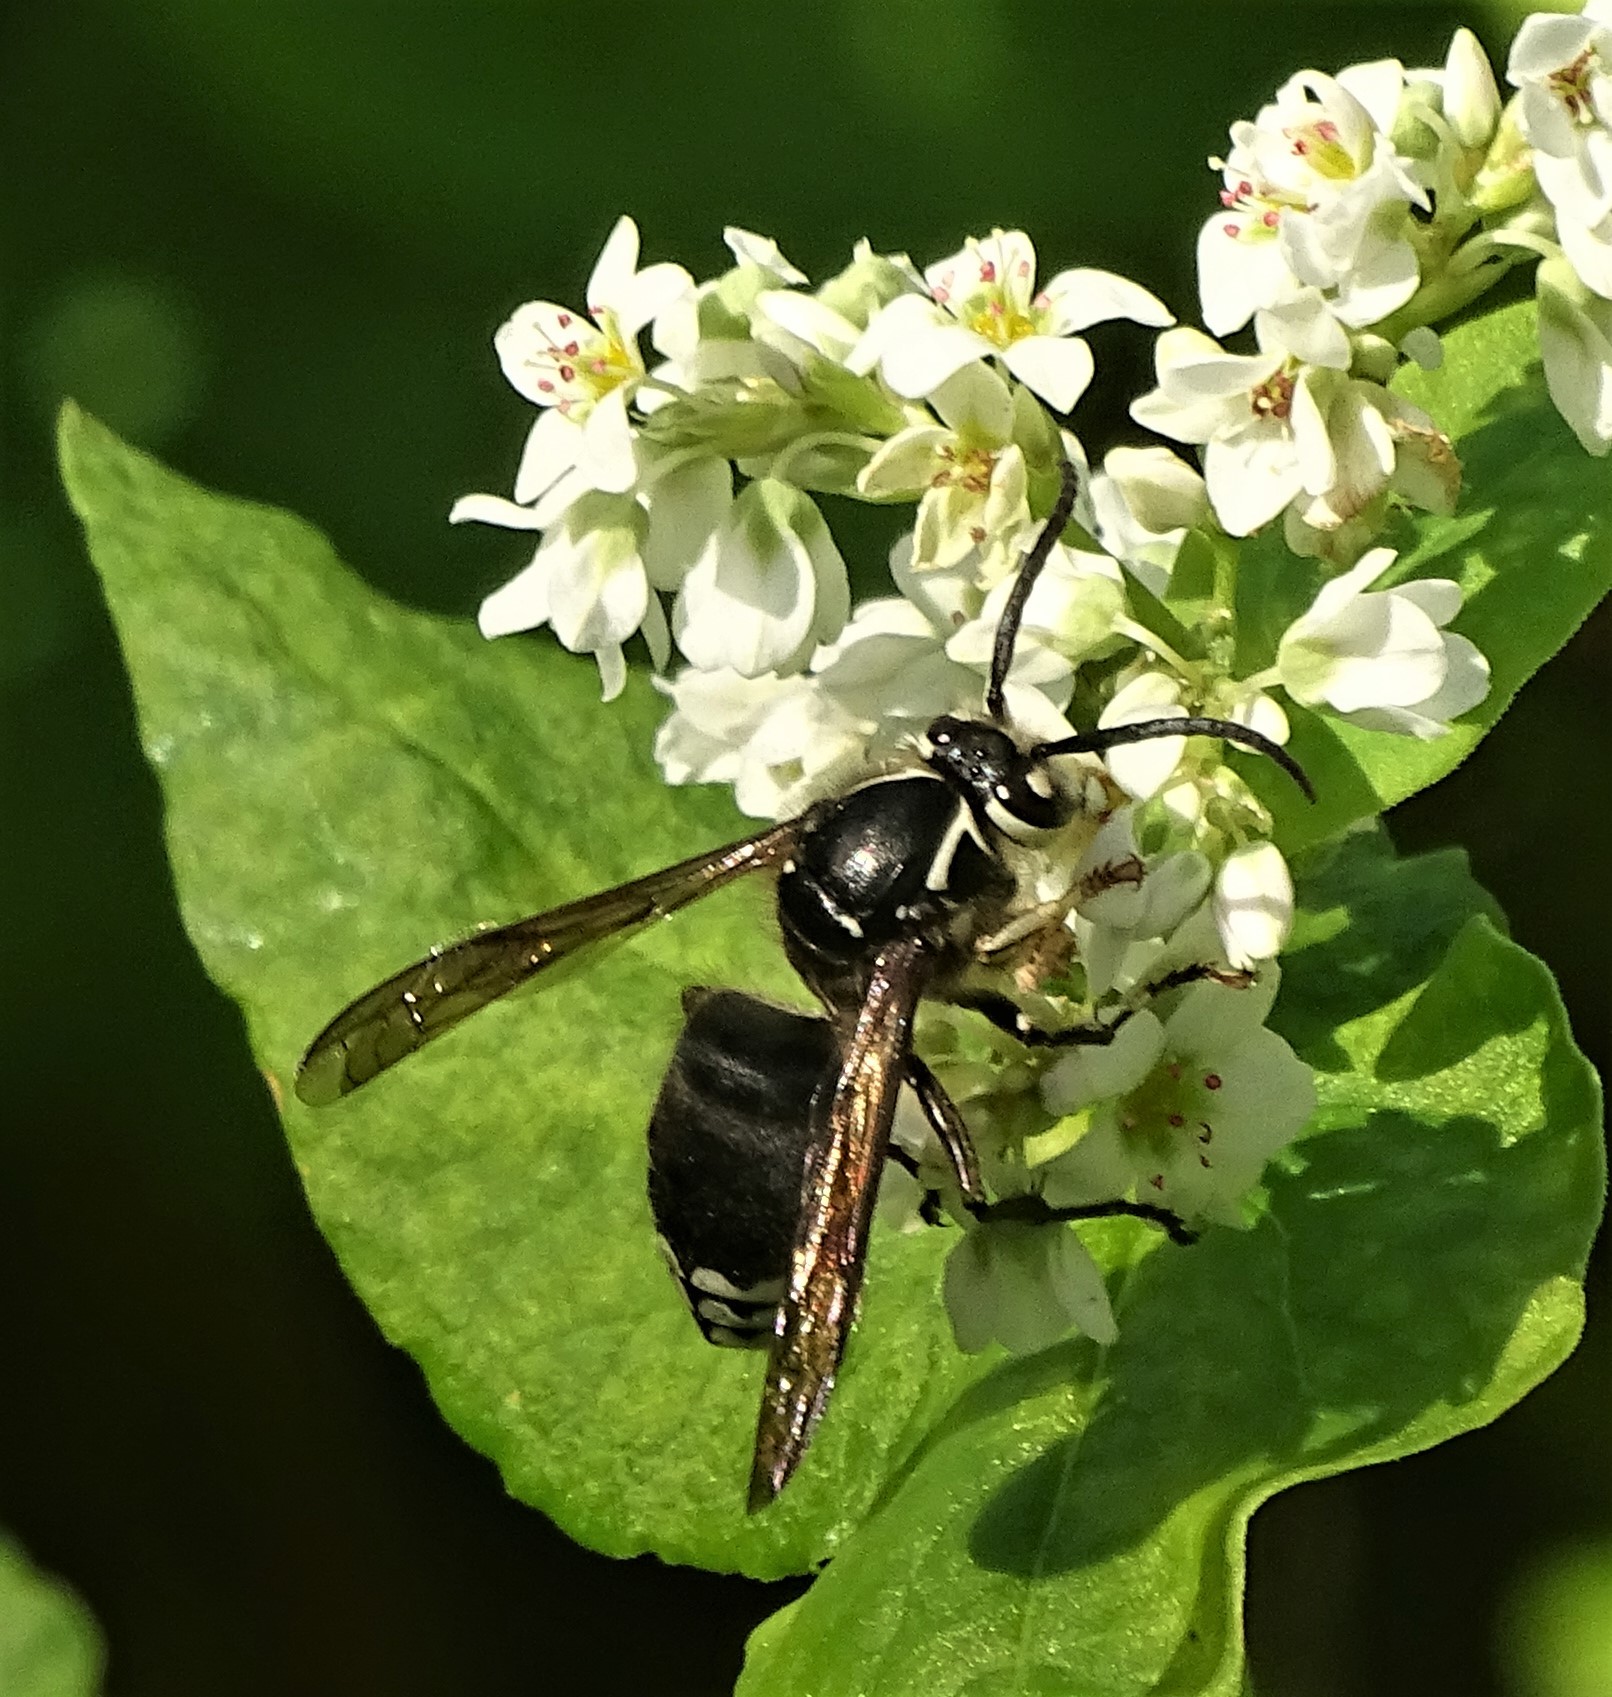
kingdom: Animalia
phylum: Arthropoda
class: Insecta
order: Hymenoptera
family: Vespidae
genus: Dolichovespula
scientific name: Dolichovespula maculata
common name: Bald-faced hornet
